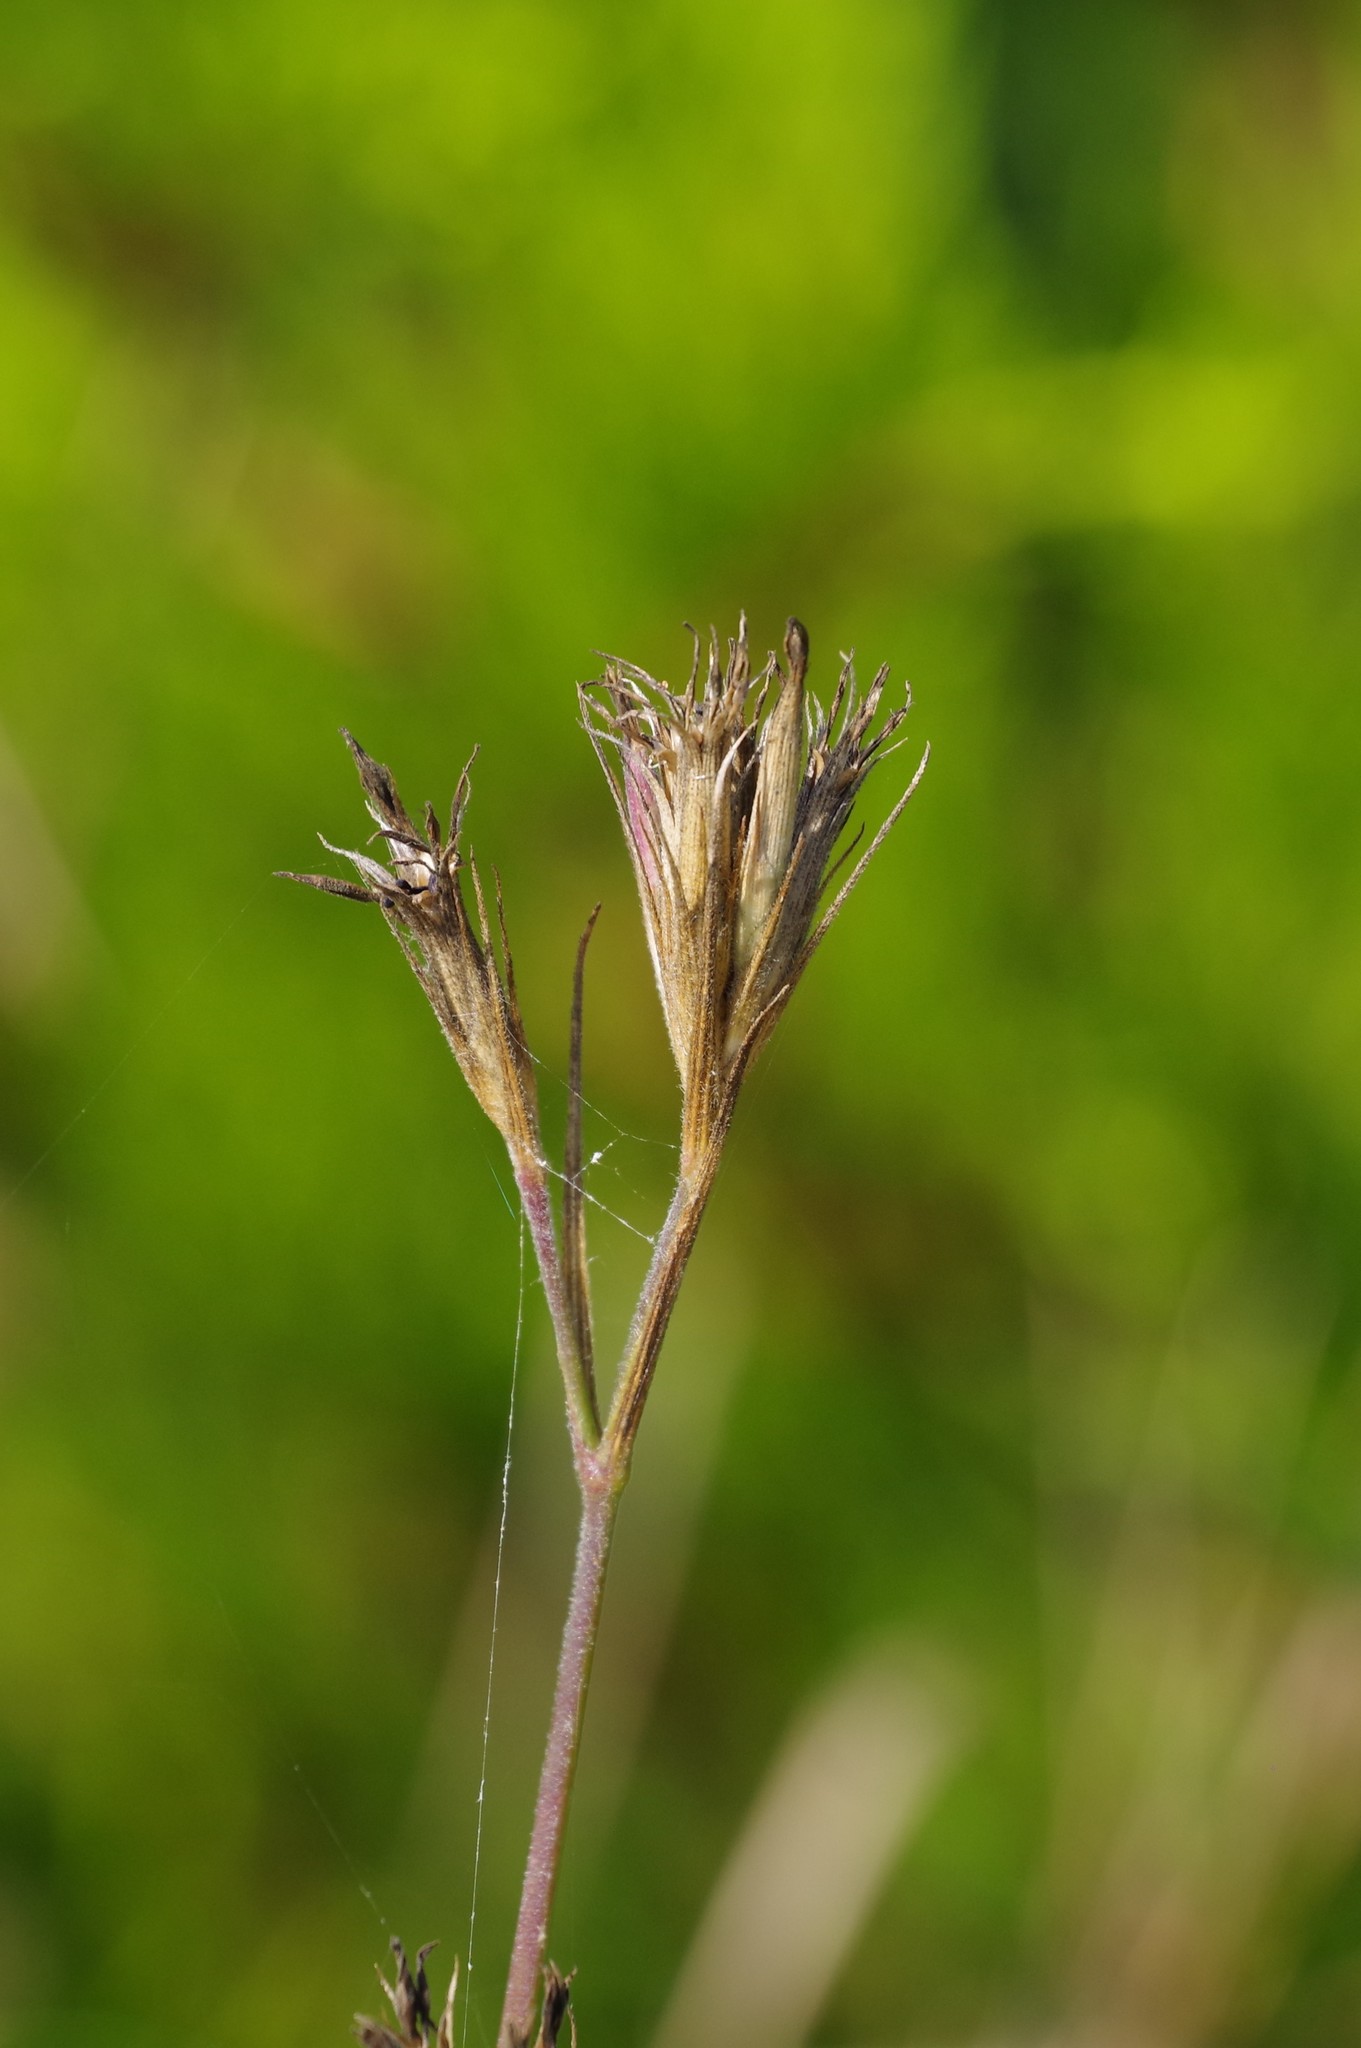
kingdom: Plantae
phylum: Tracheophyta
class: Magnoliopsida
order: Caryophyllales
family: Caryophyllaceae
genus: Dianthus
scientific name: Dianthus armeria
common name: Deptford pink
